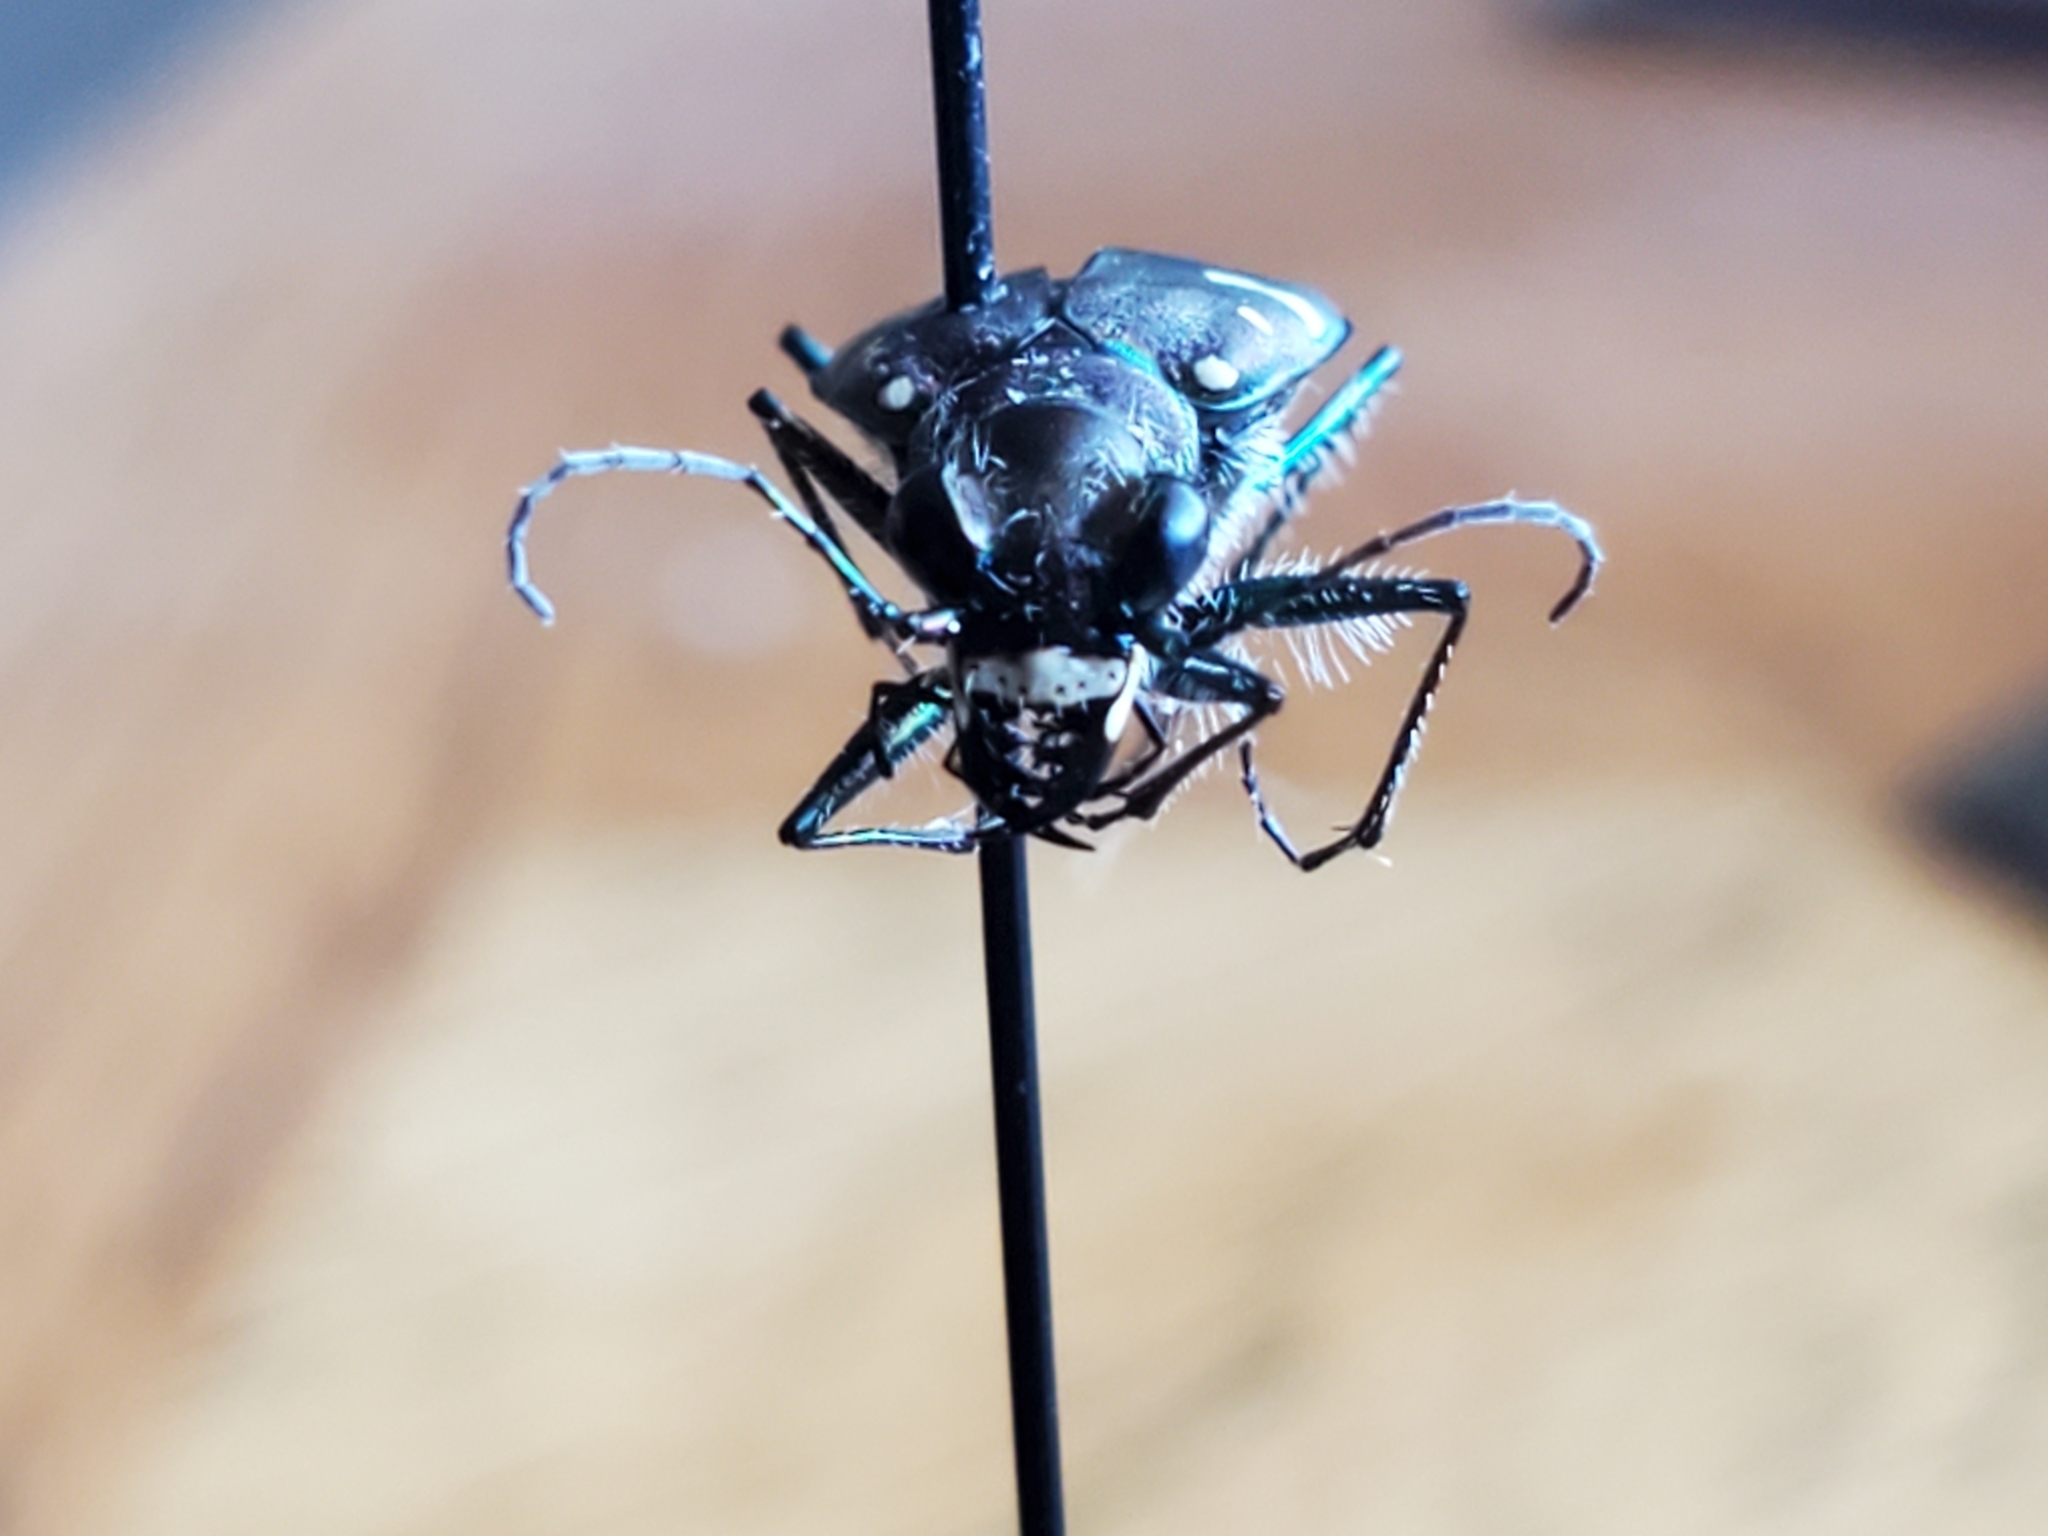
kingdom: Animalia
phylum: Arthropoda
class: Insecta
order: Coleoptera
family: Carabidae
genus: Cicindela
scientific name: Cicindela duodecimguttata
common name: Twelve-spotted tiger beetle
